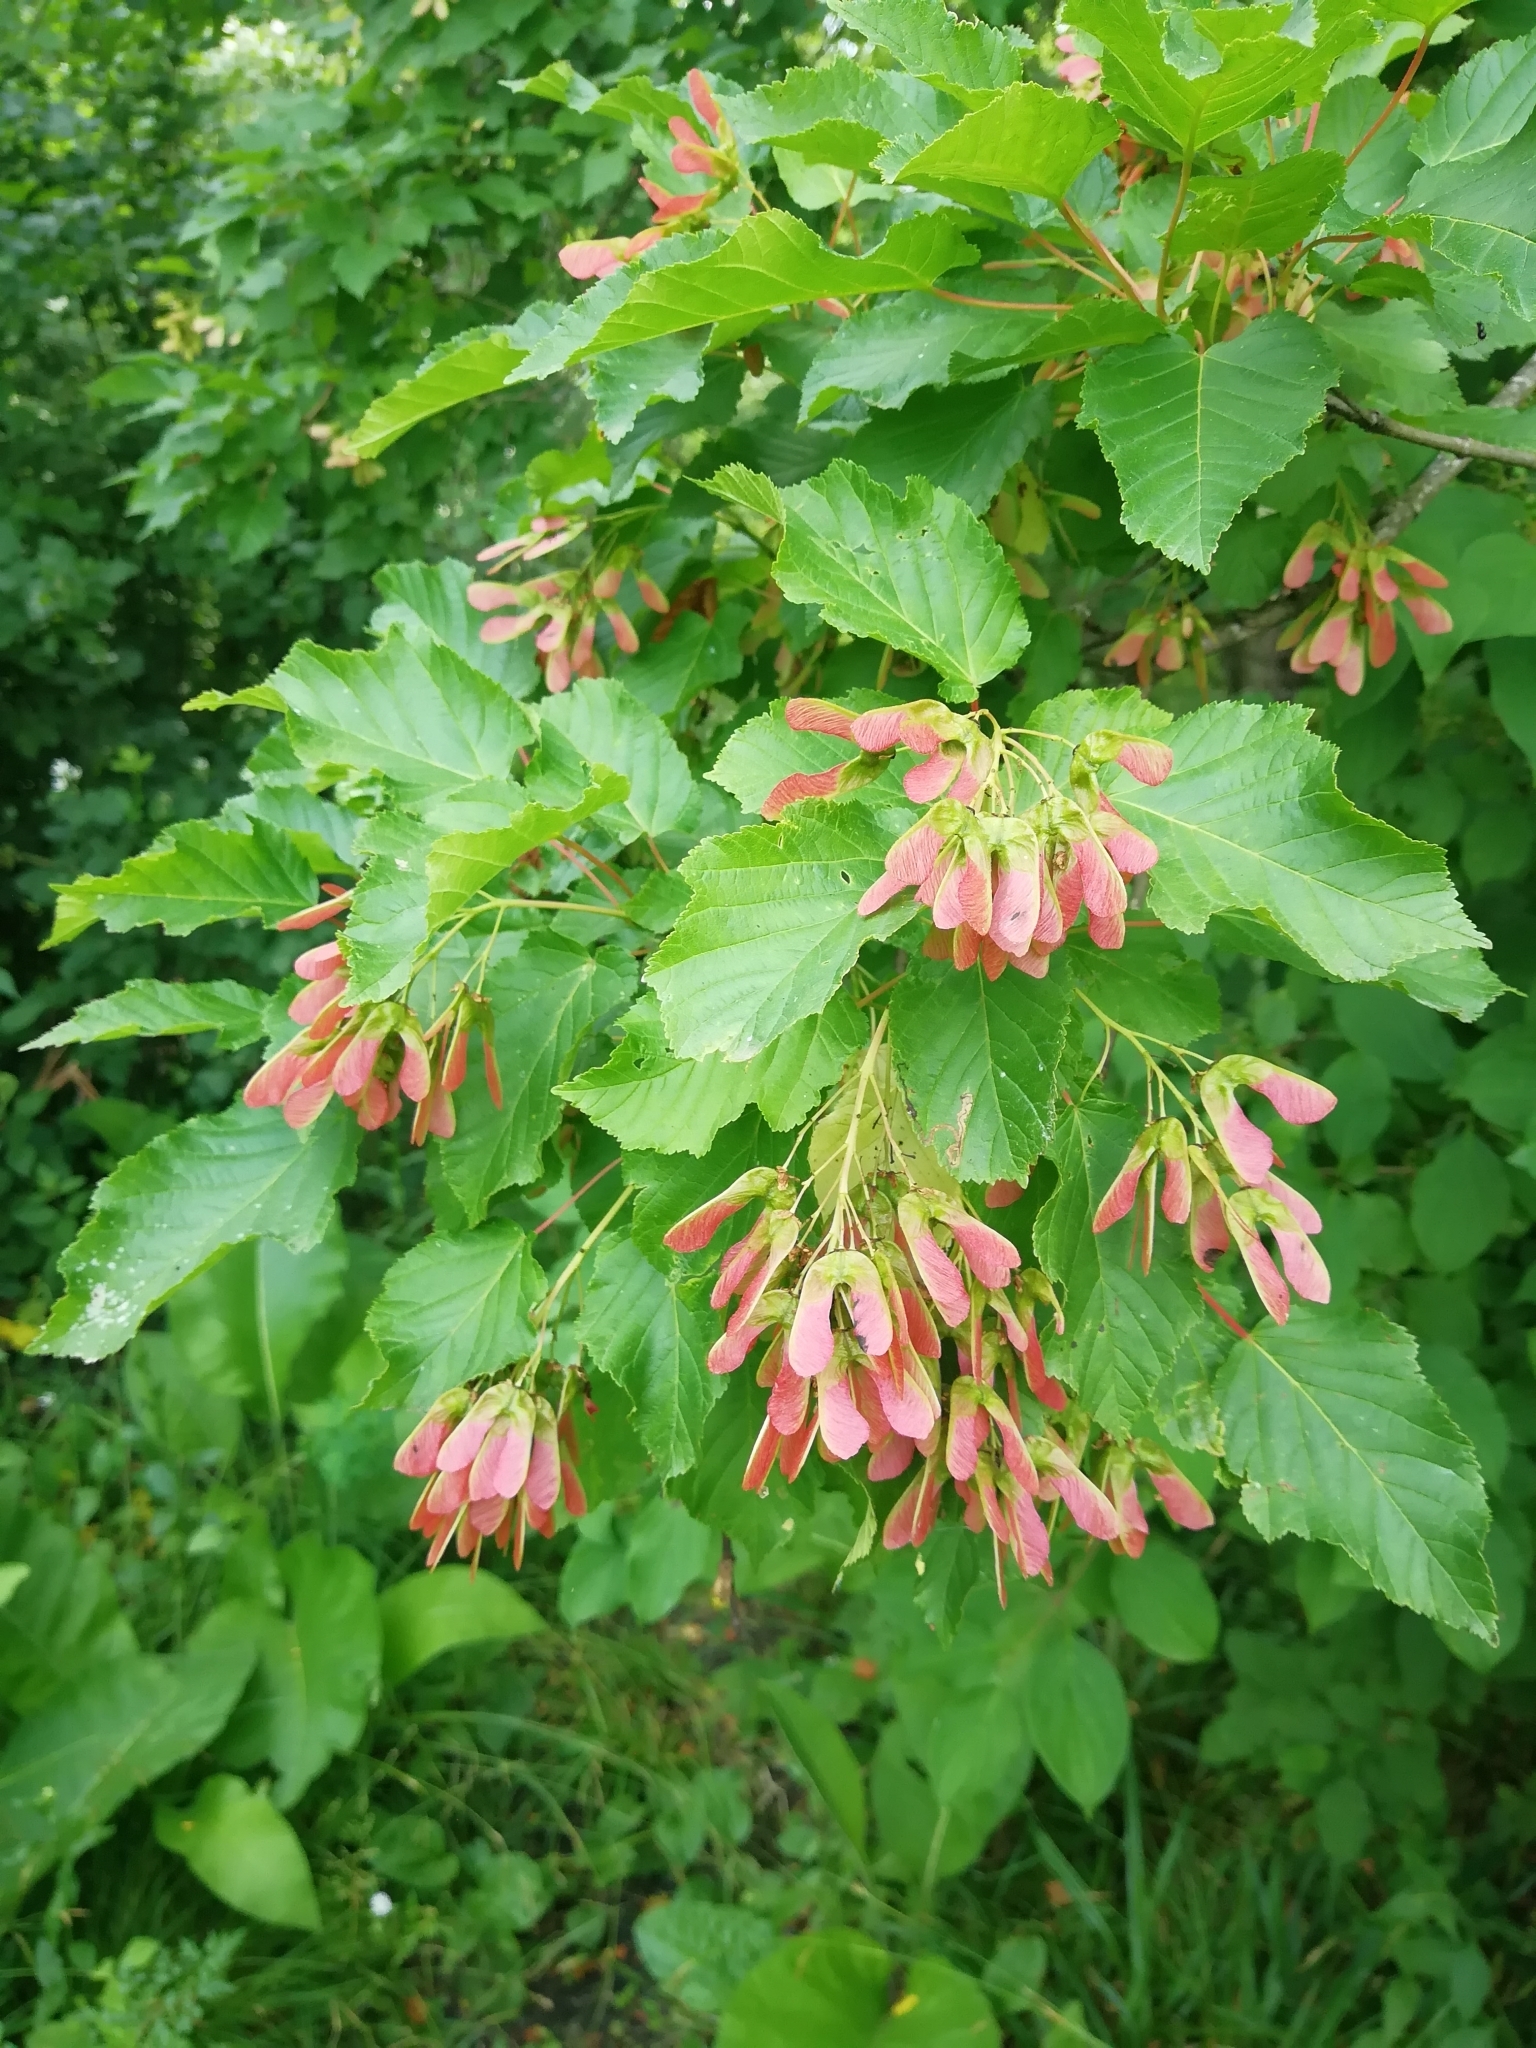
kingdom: Plantae
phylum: Tracheophyta
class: Magnoliopsida
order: Sapindales
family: Sapindaceae
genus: Acer
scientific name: Acer tataricum
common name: Tartar maple
